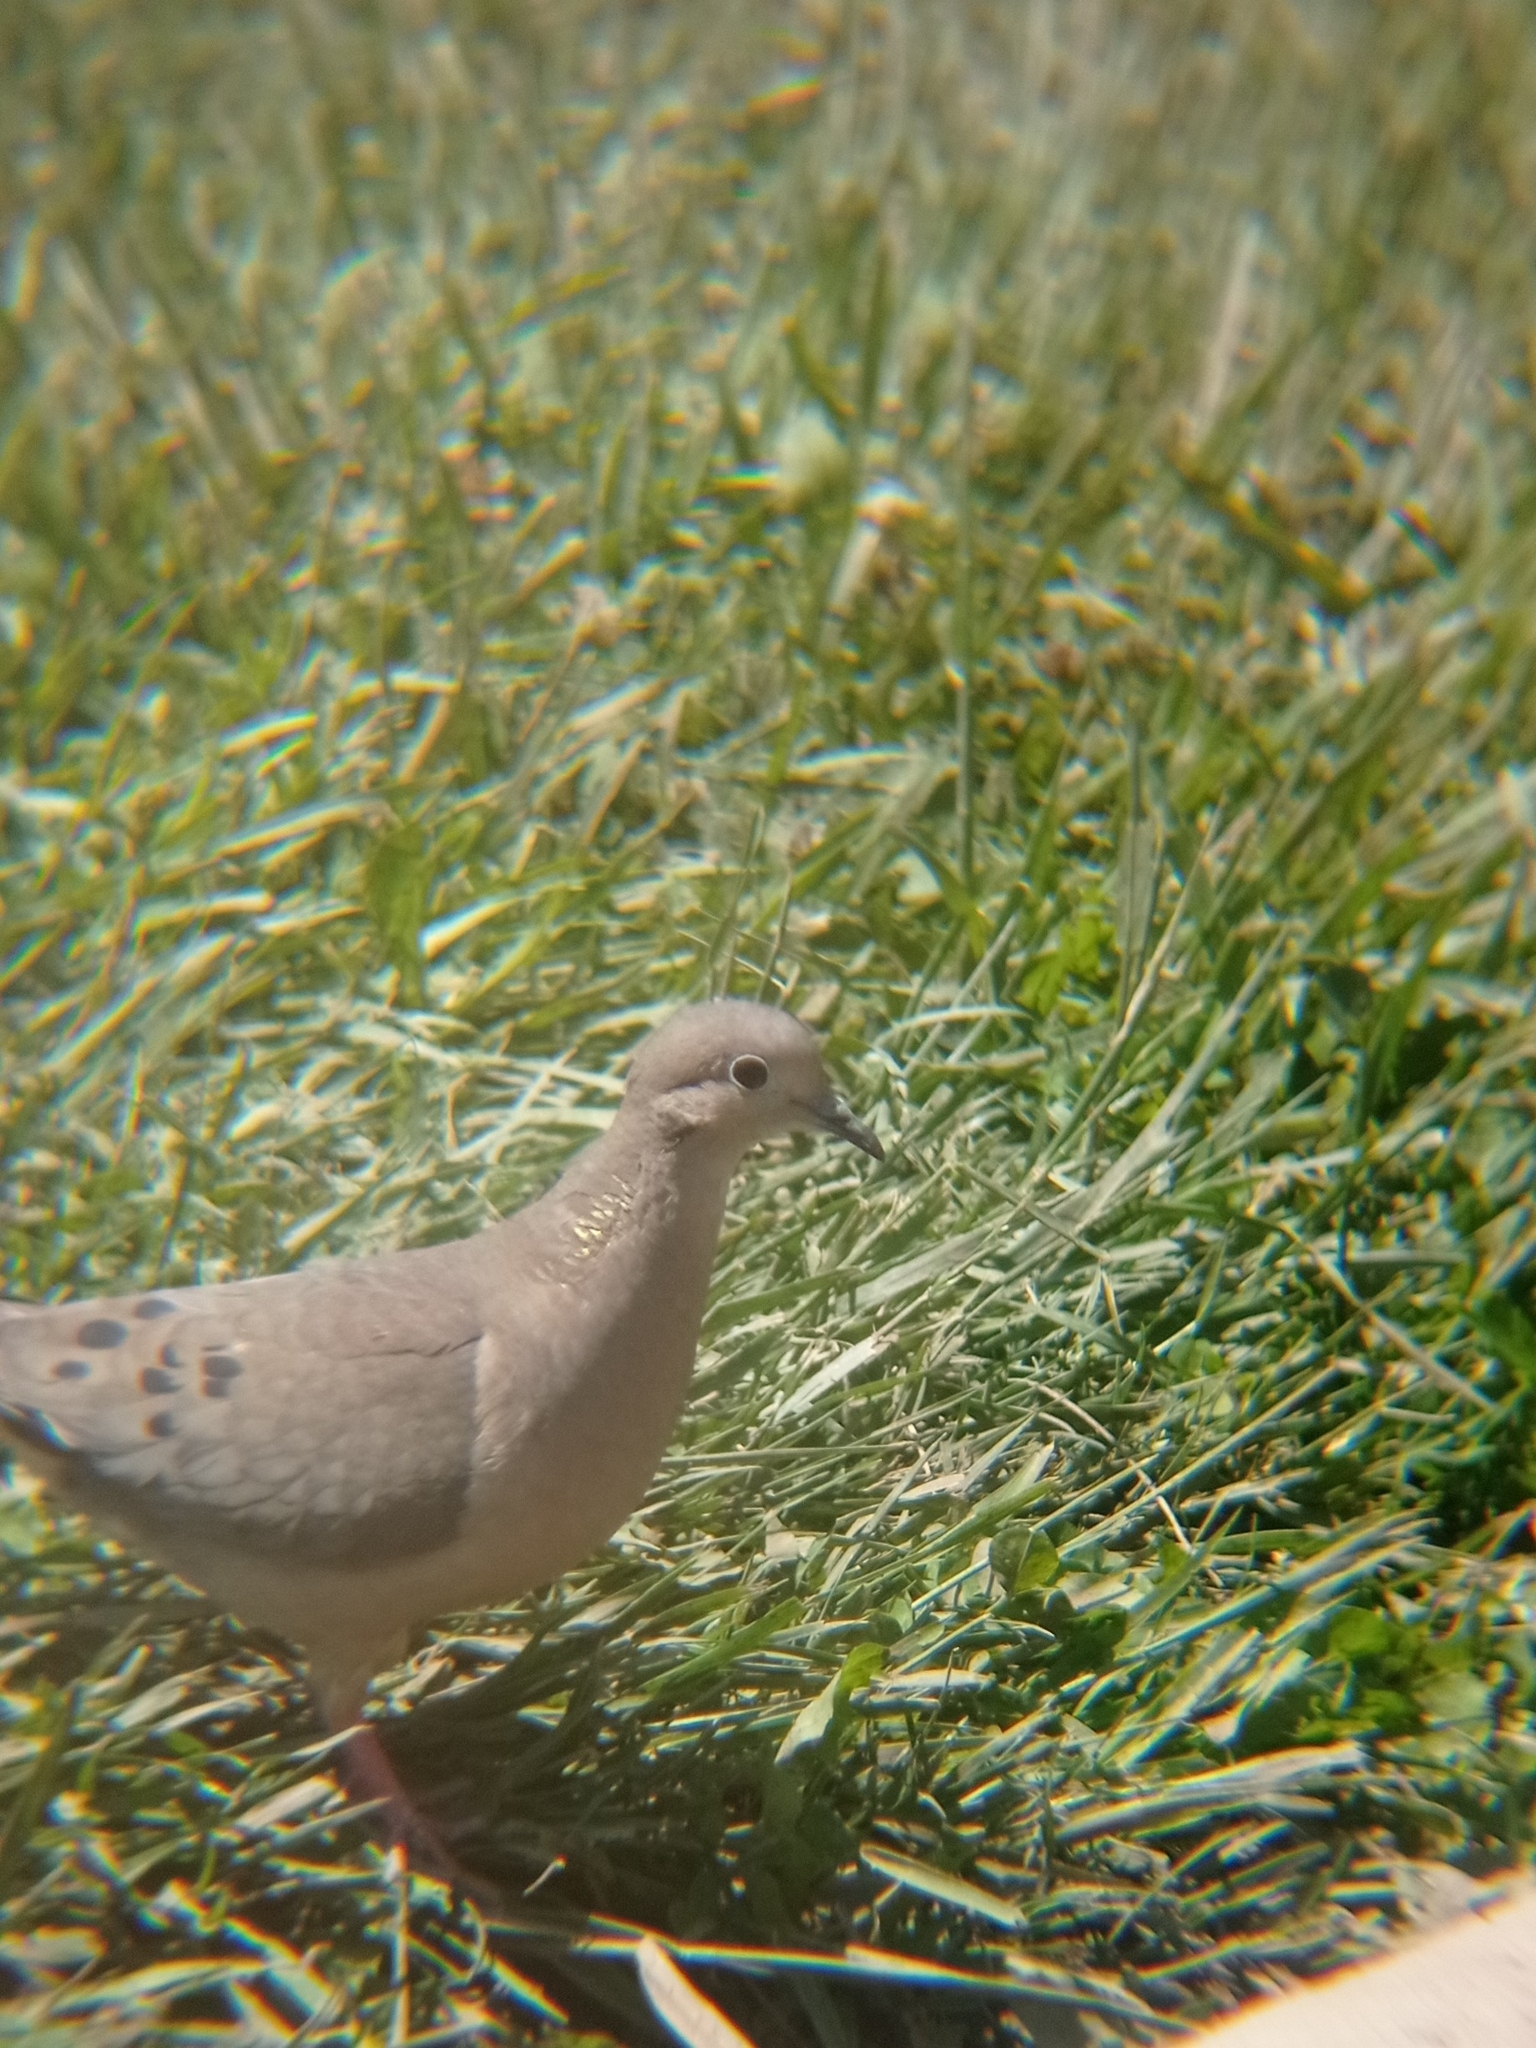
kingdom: Animalia
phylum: Chordata
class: Aves
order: Columbiformes
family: Columbidae
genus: Zenaida
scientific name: Zenaida auriculata
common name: Eared dove
